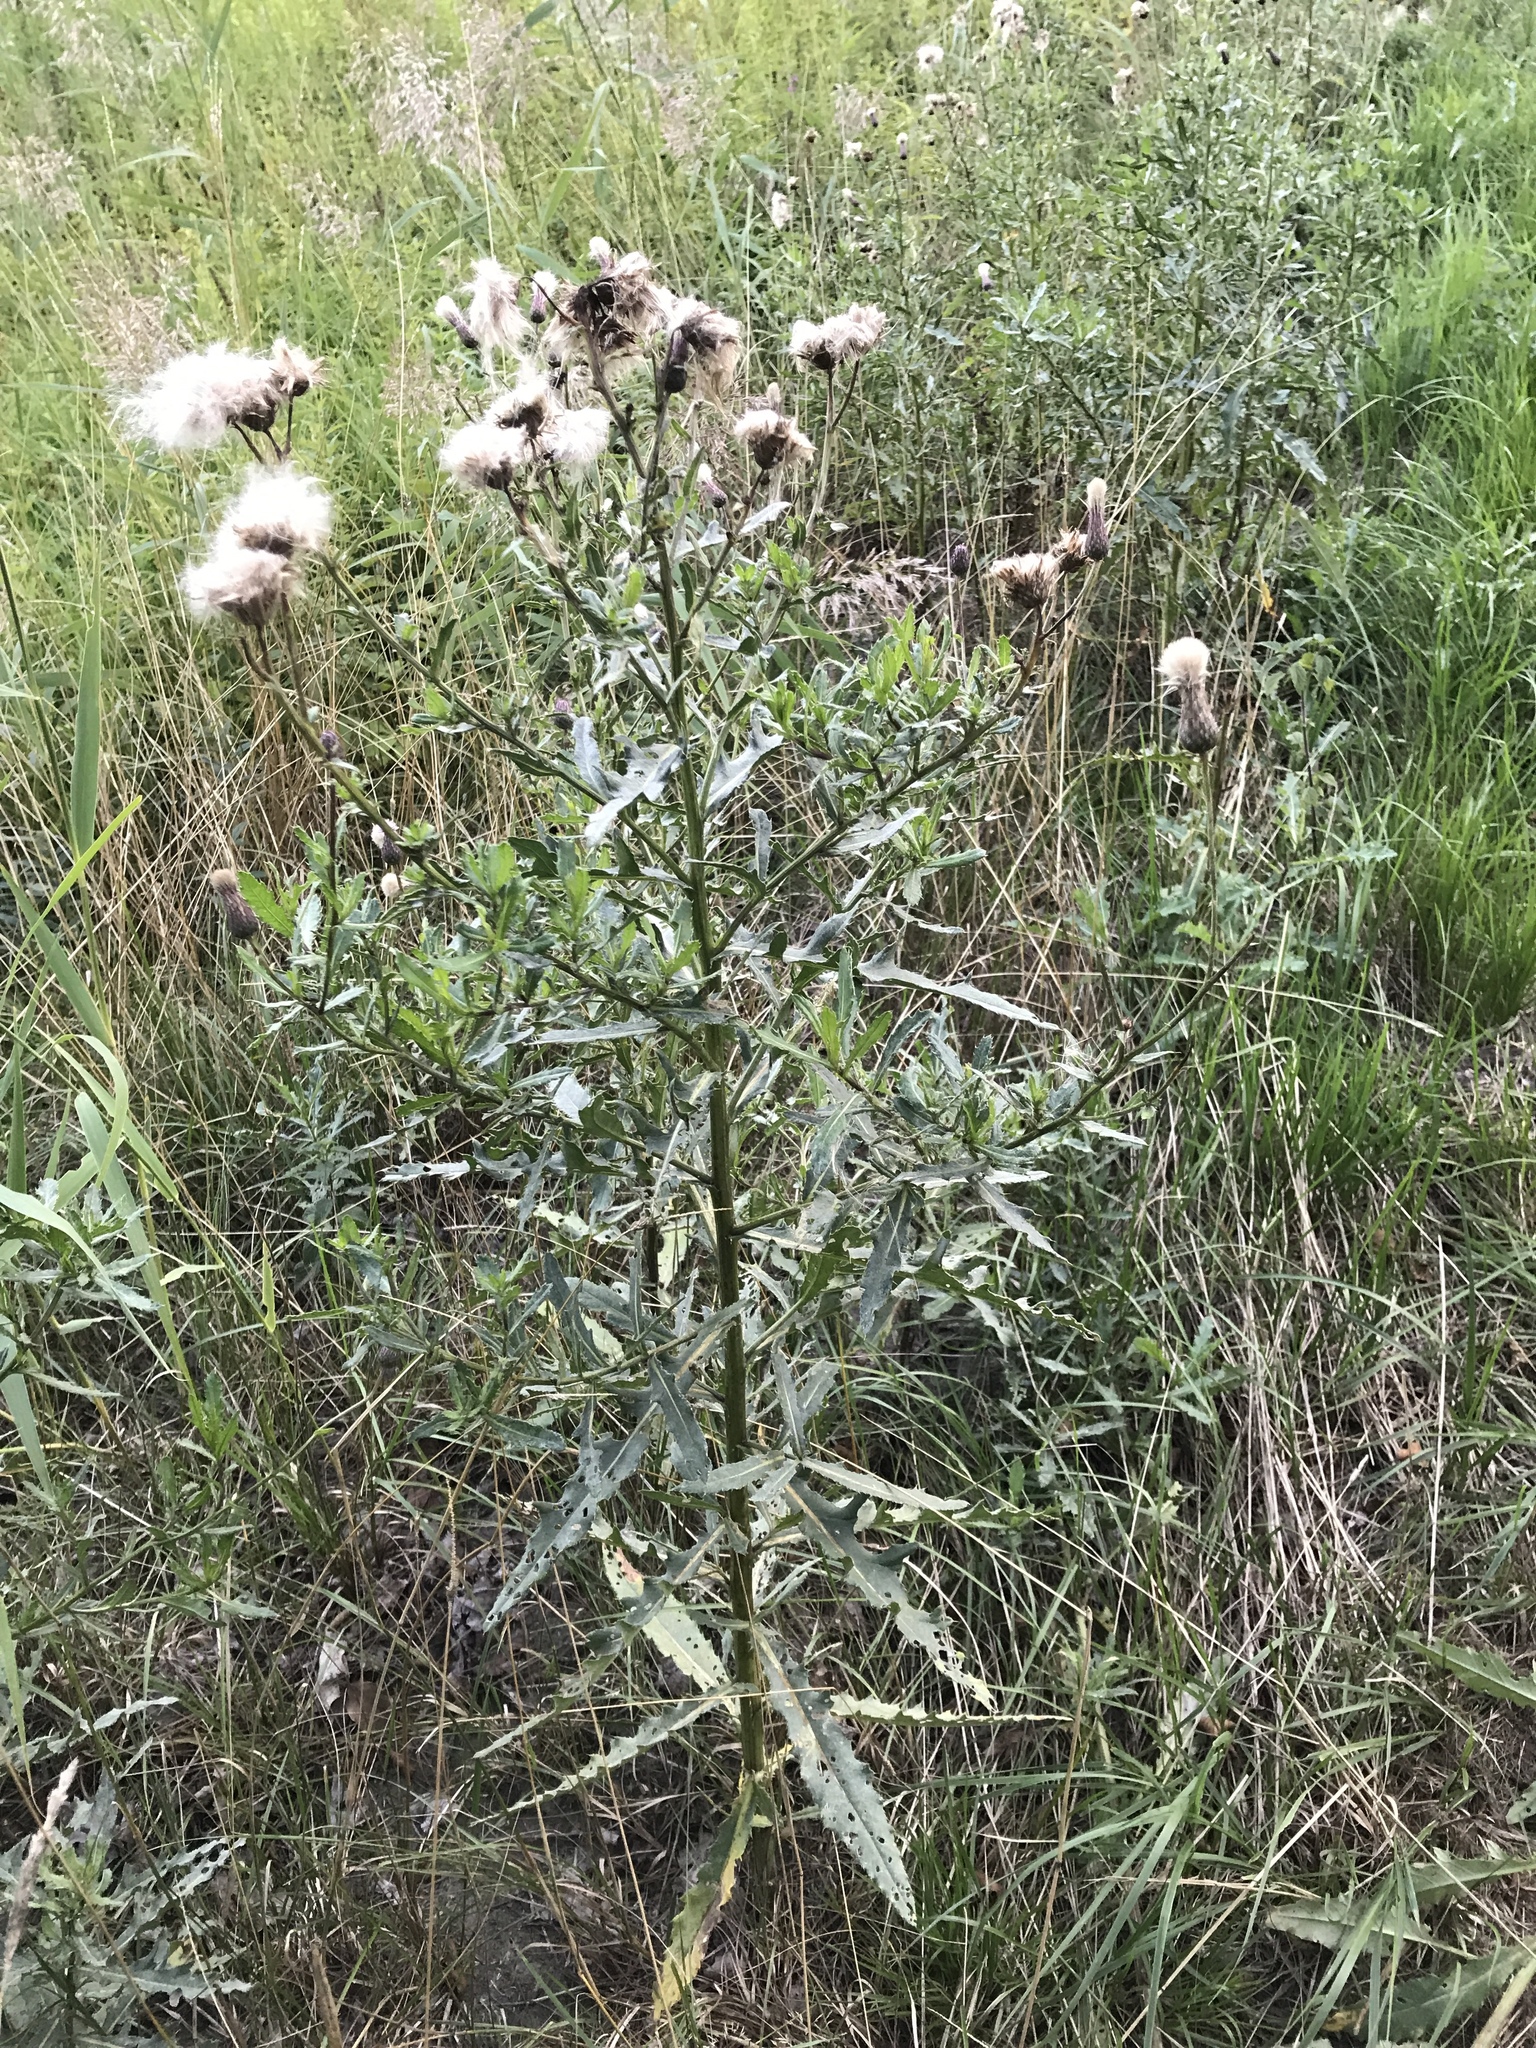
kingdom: Plantae
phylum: Tracheophyta
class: Magnoliopsida
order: Asterales
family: Asteraceae
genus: Cirsium
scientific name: Cirsium arvense
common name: Creeping thistle
